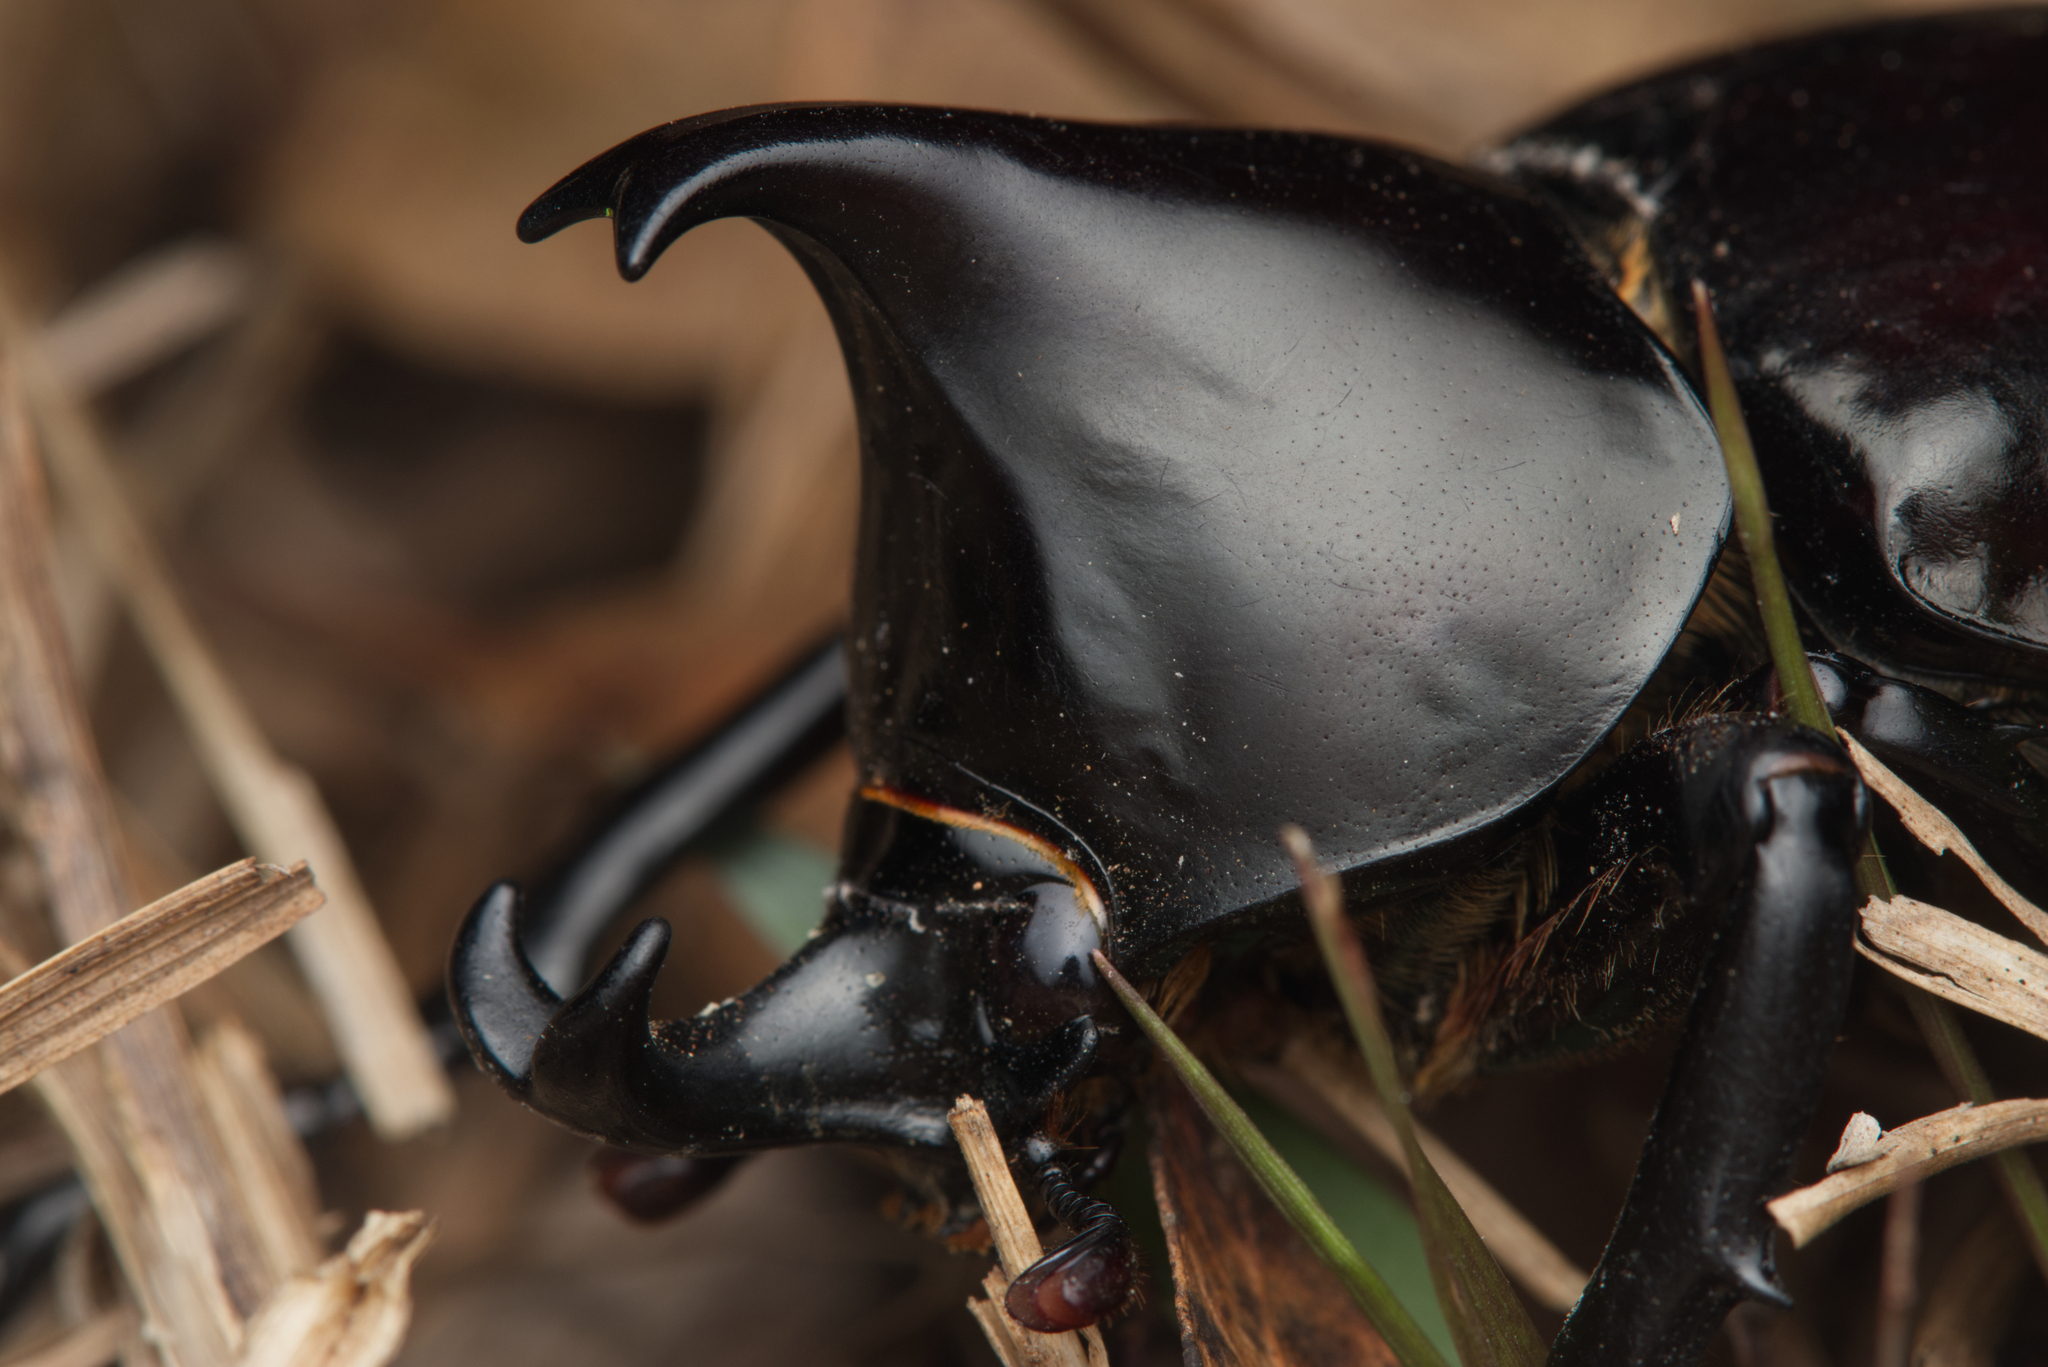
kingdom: Animalia
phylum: Arthropoda
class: Insecta
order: Coleoptera
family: Scarabaeidae
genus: Xylotrupes
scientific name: Xylotrupes australicus
